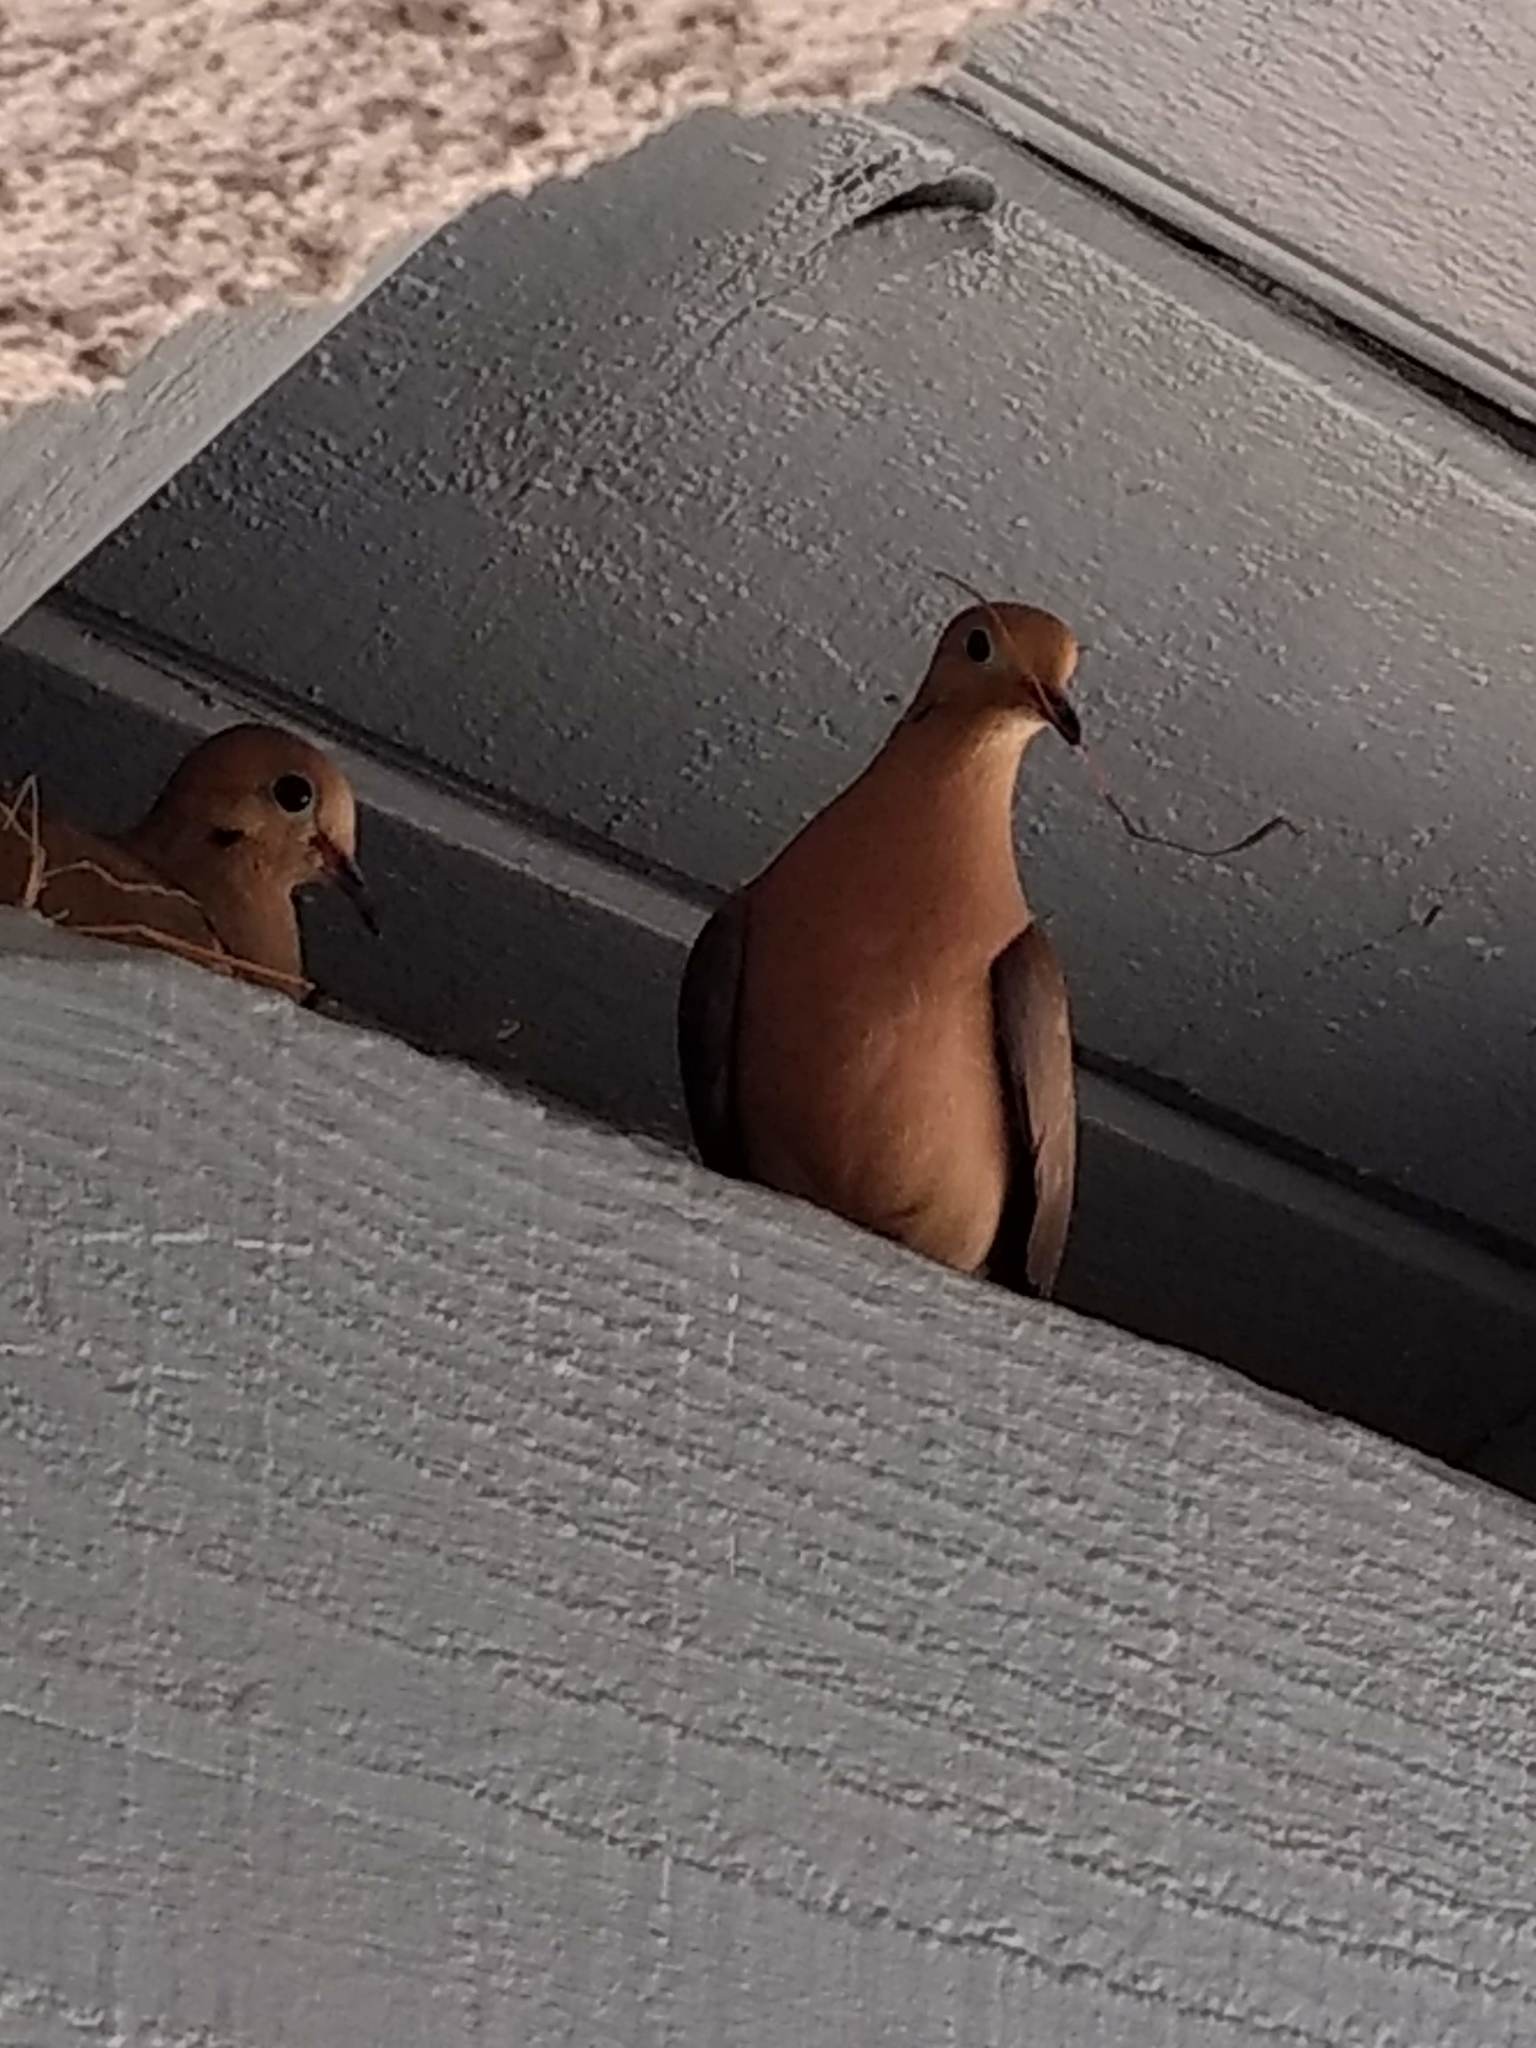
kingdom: Animalia
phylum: Chordata
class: Aves
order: Columbiformes
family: Columbidae
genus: Zenaida
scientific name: Zenaida macroura
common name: Mourning dove
